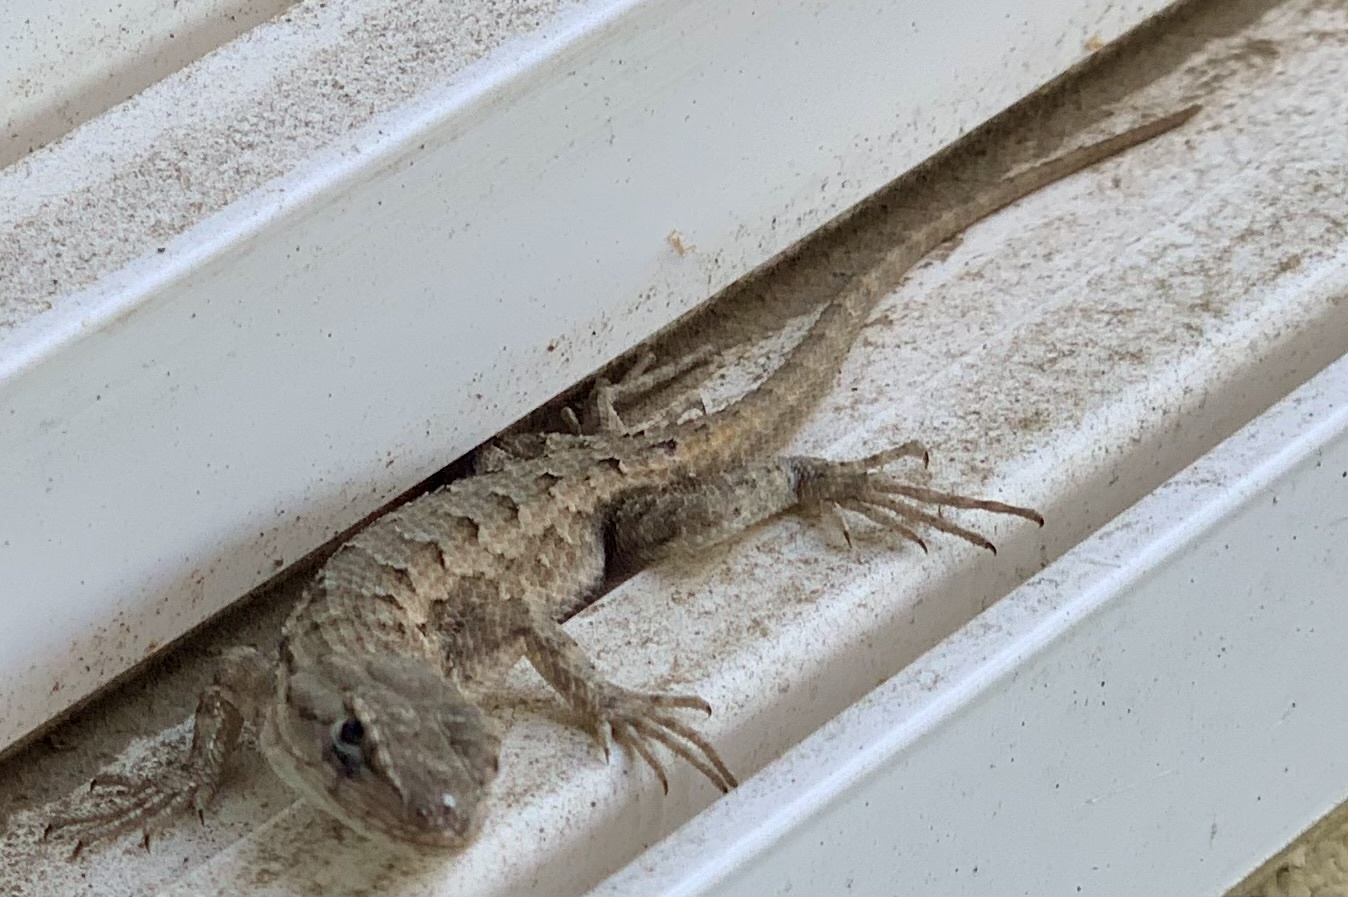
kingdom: Animalia
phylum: Chordata
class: Squamata
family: Phrynosomatidae
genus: Sceloporus
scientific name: Sceloporus occidentalis
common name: Western fence lizard
